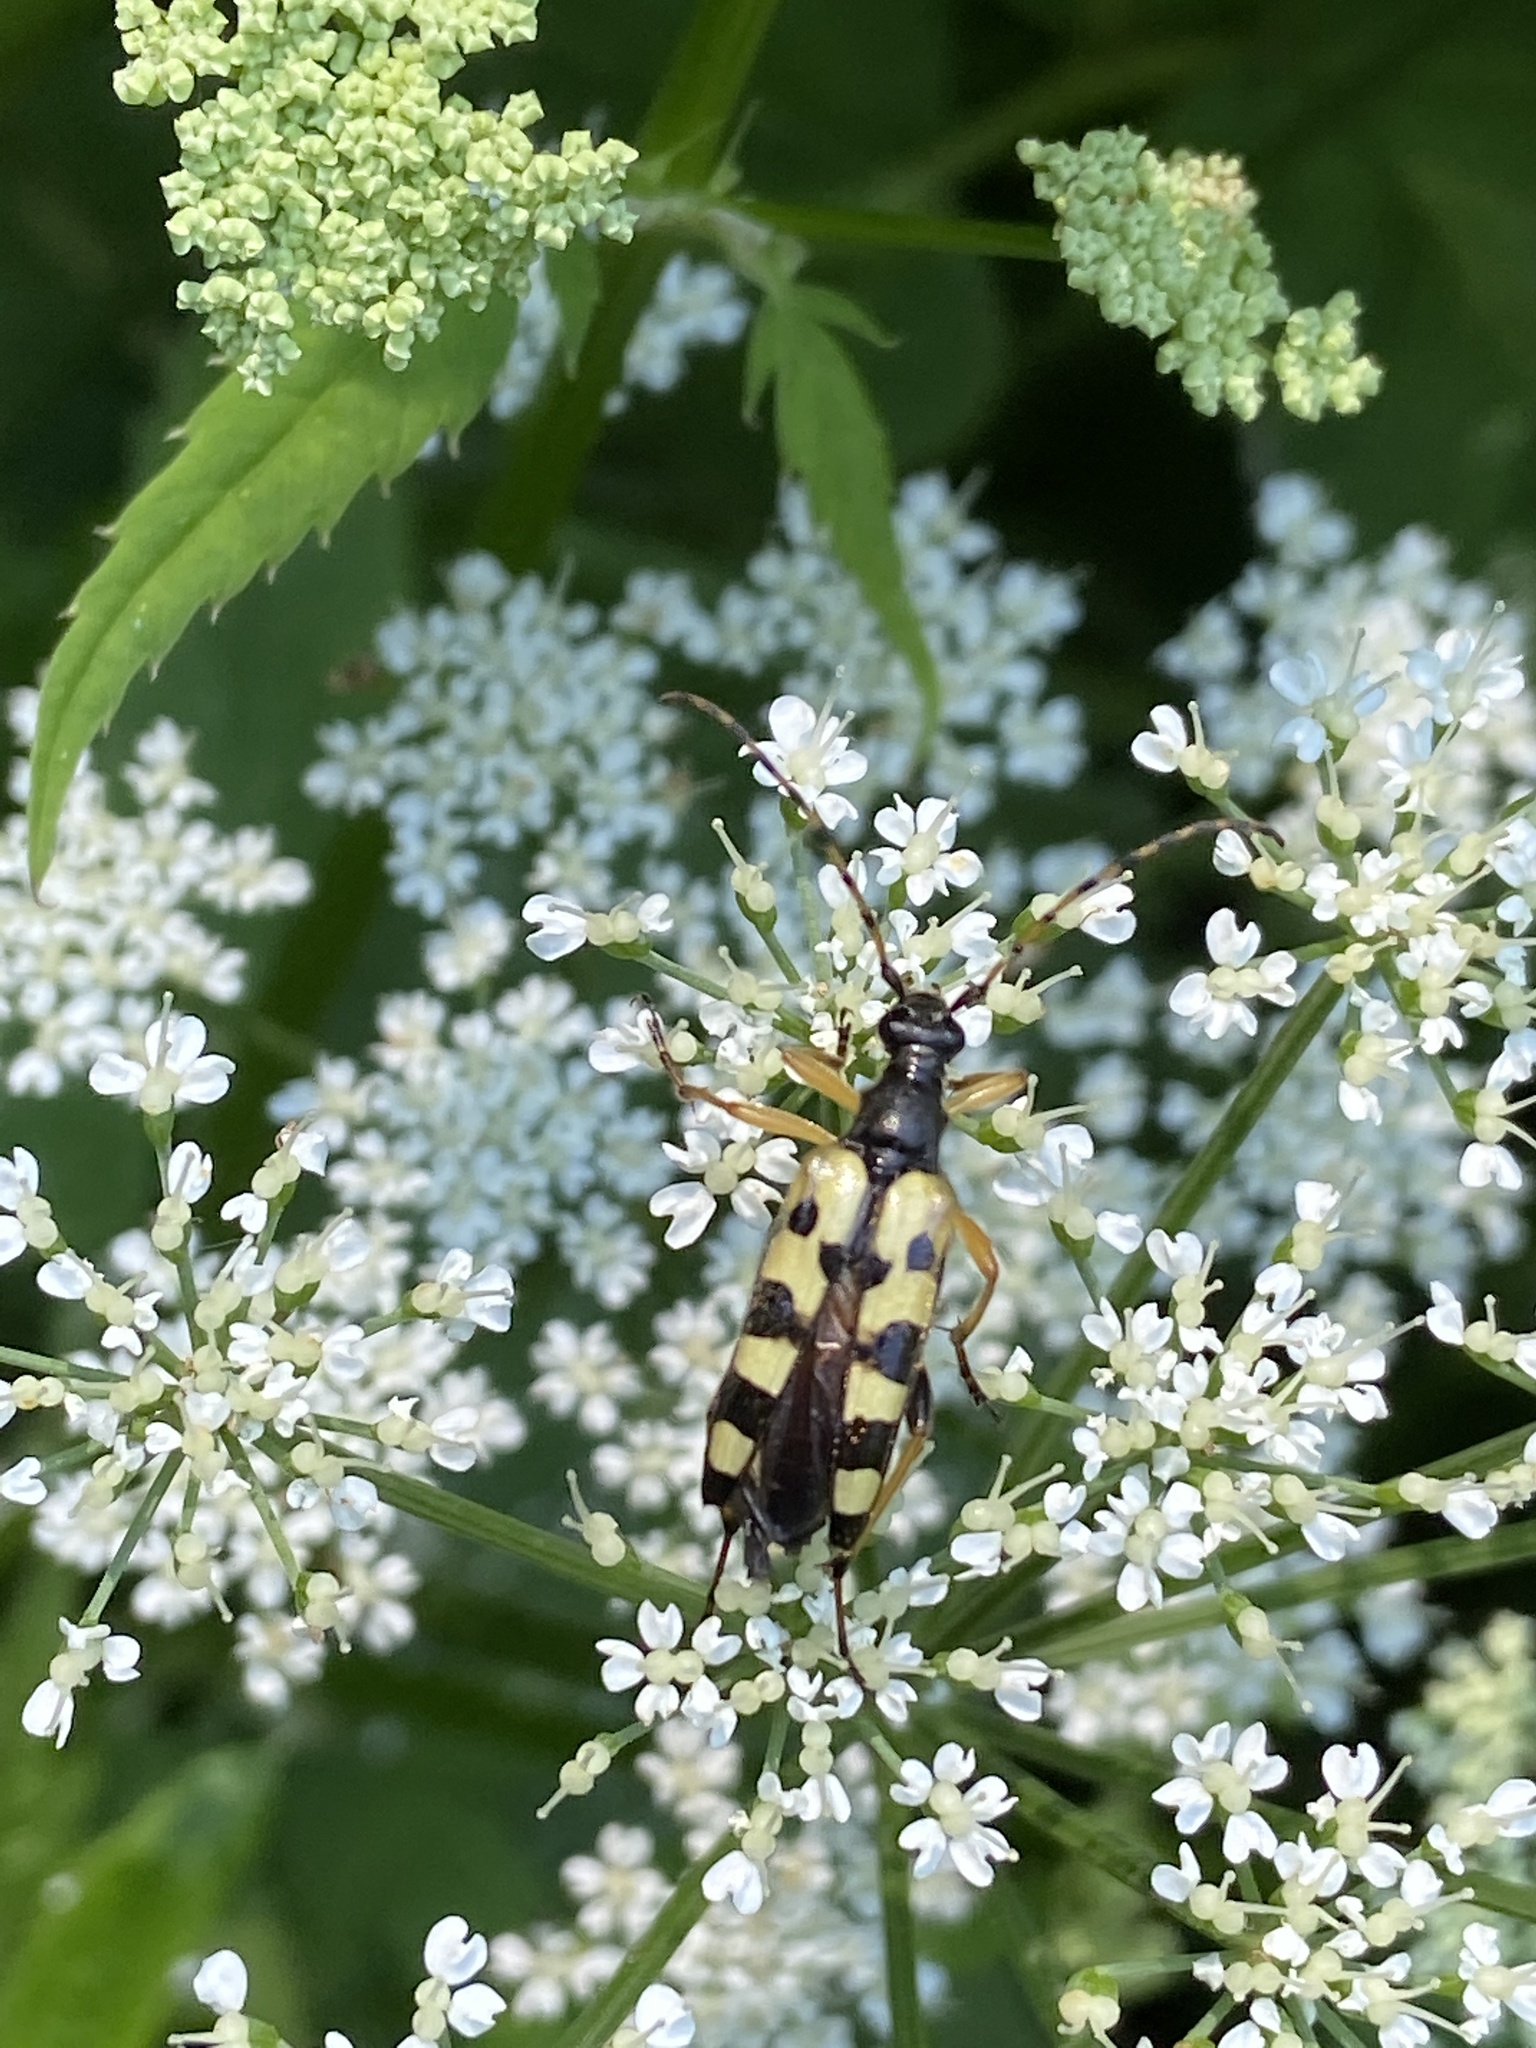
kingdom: Animalia
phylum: Arthropoda
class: Insecta
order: Coleoptera
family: Cerambycidae
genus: Rutpela
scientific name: Rutpela maculata
